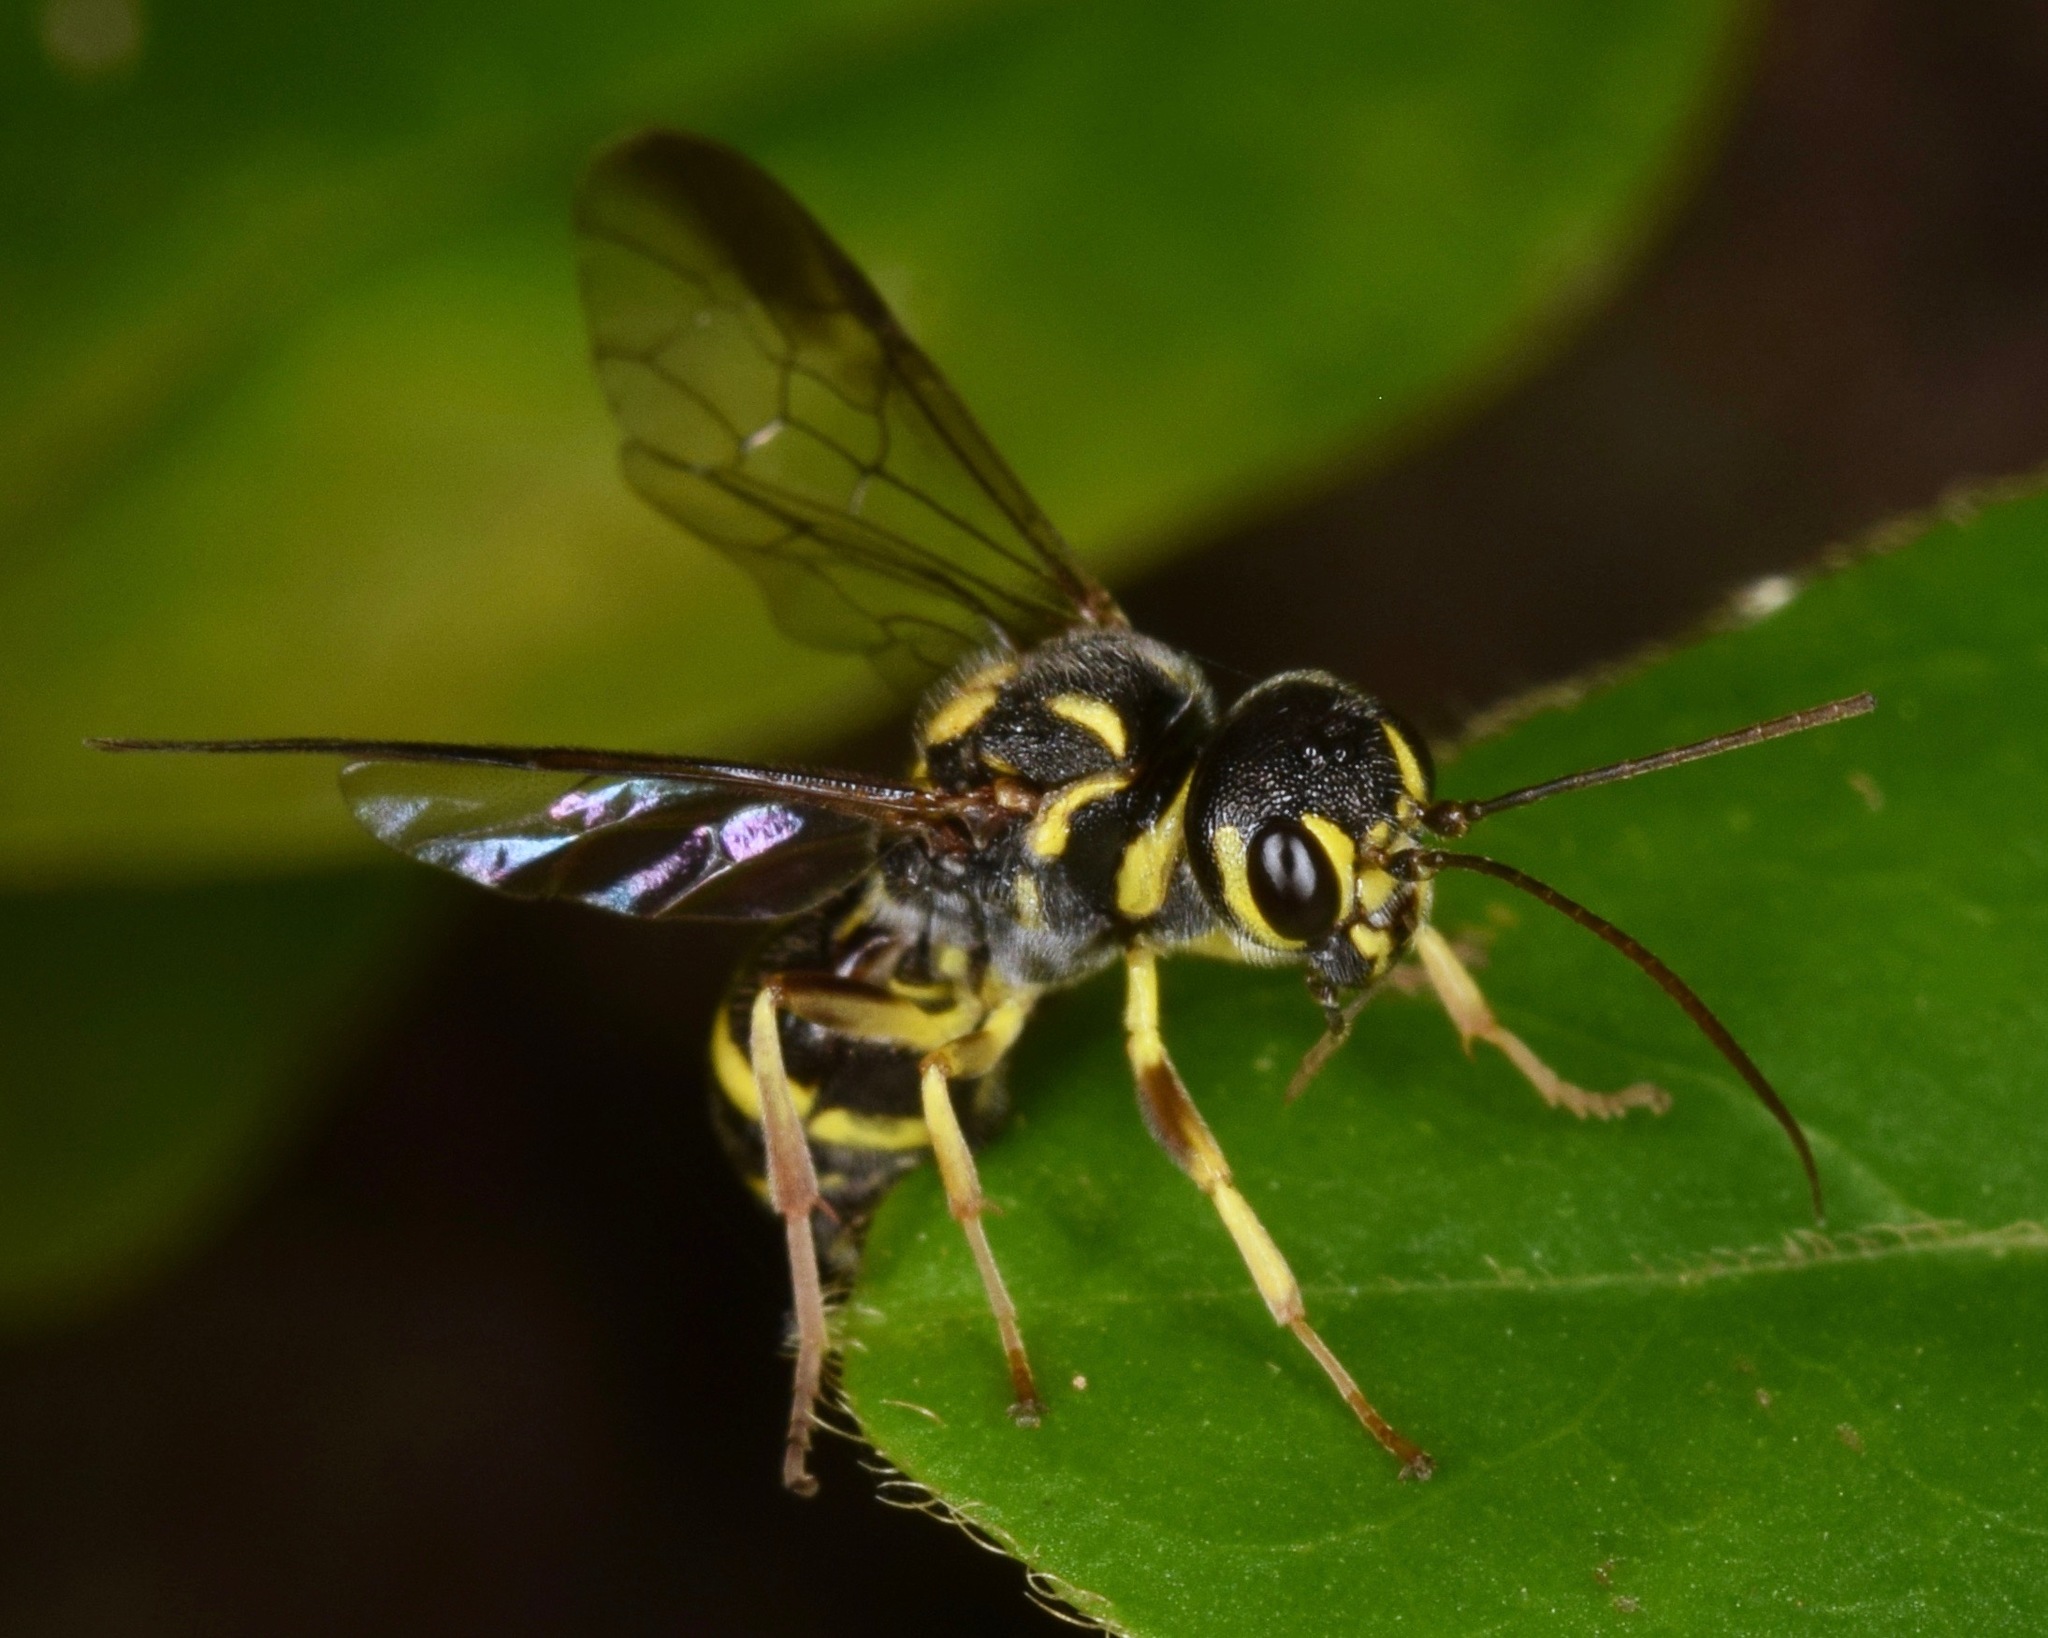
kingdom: Animalia
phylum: Arthropoda
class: Insecta
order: Hymenoptera
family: Trigonalidae
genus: Taeniogonalos
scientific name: Taeniogonalos gundlachii
